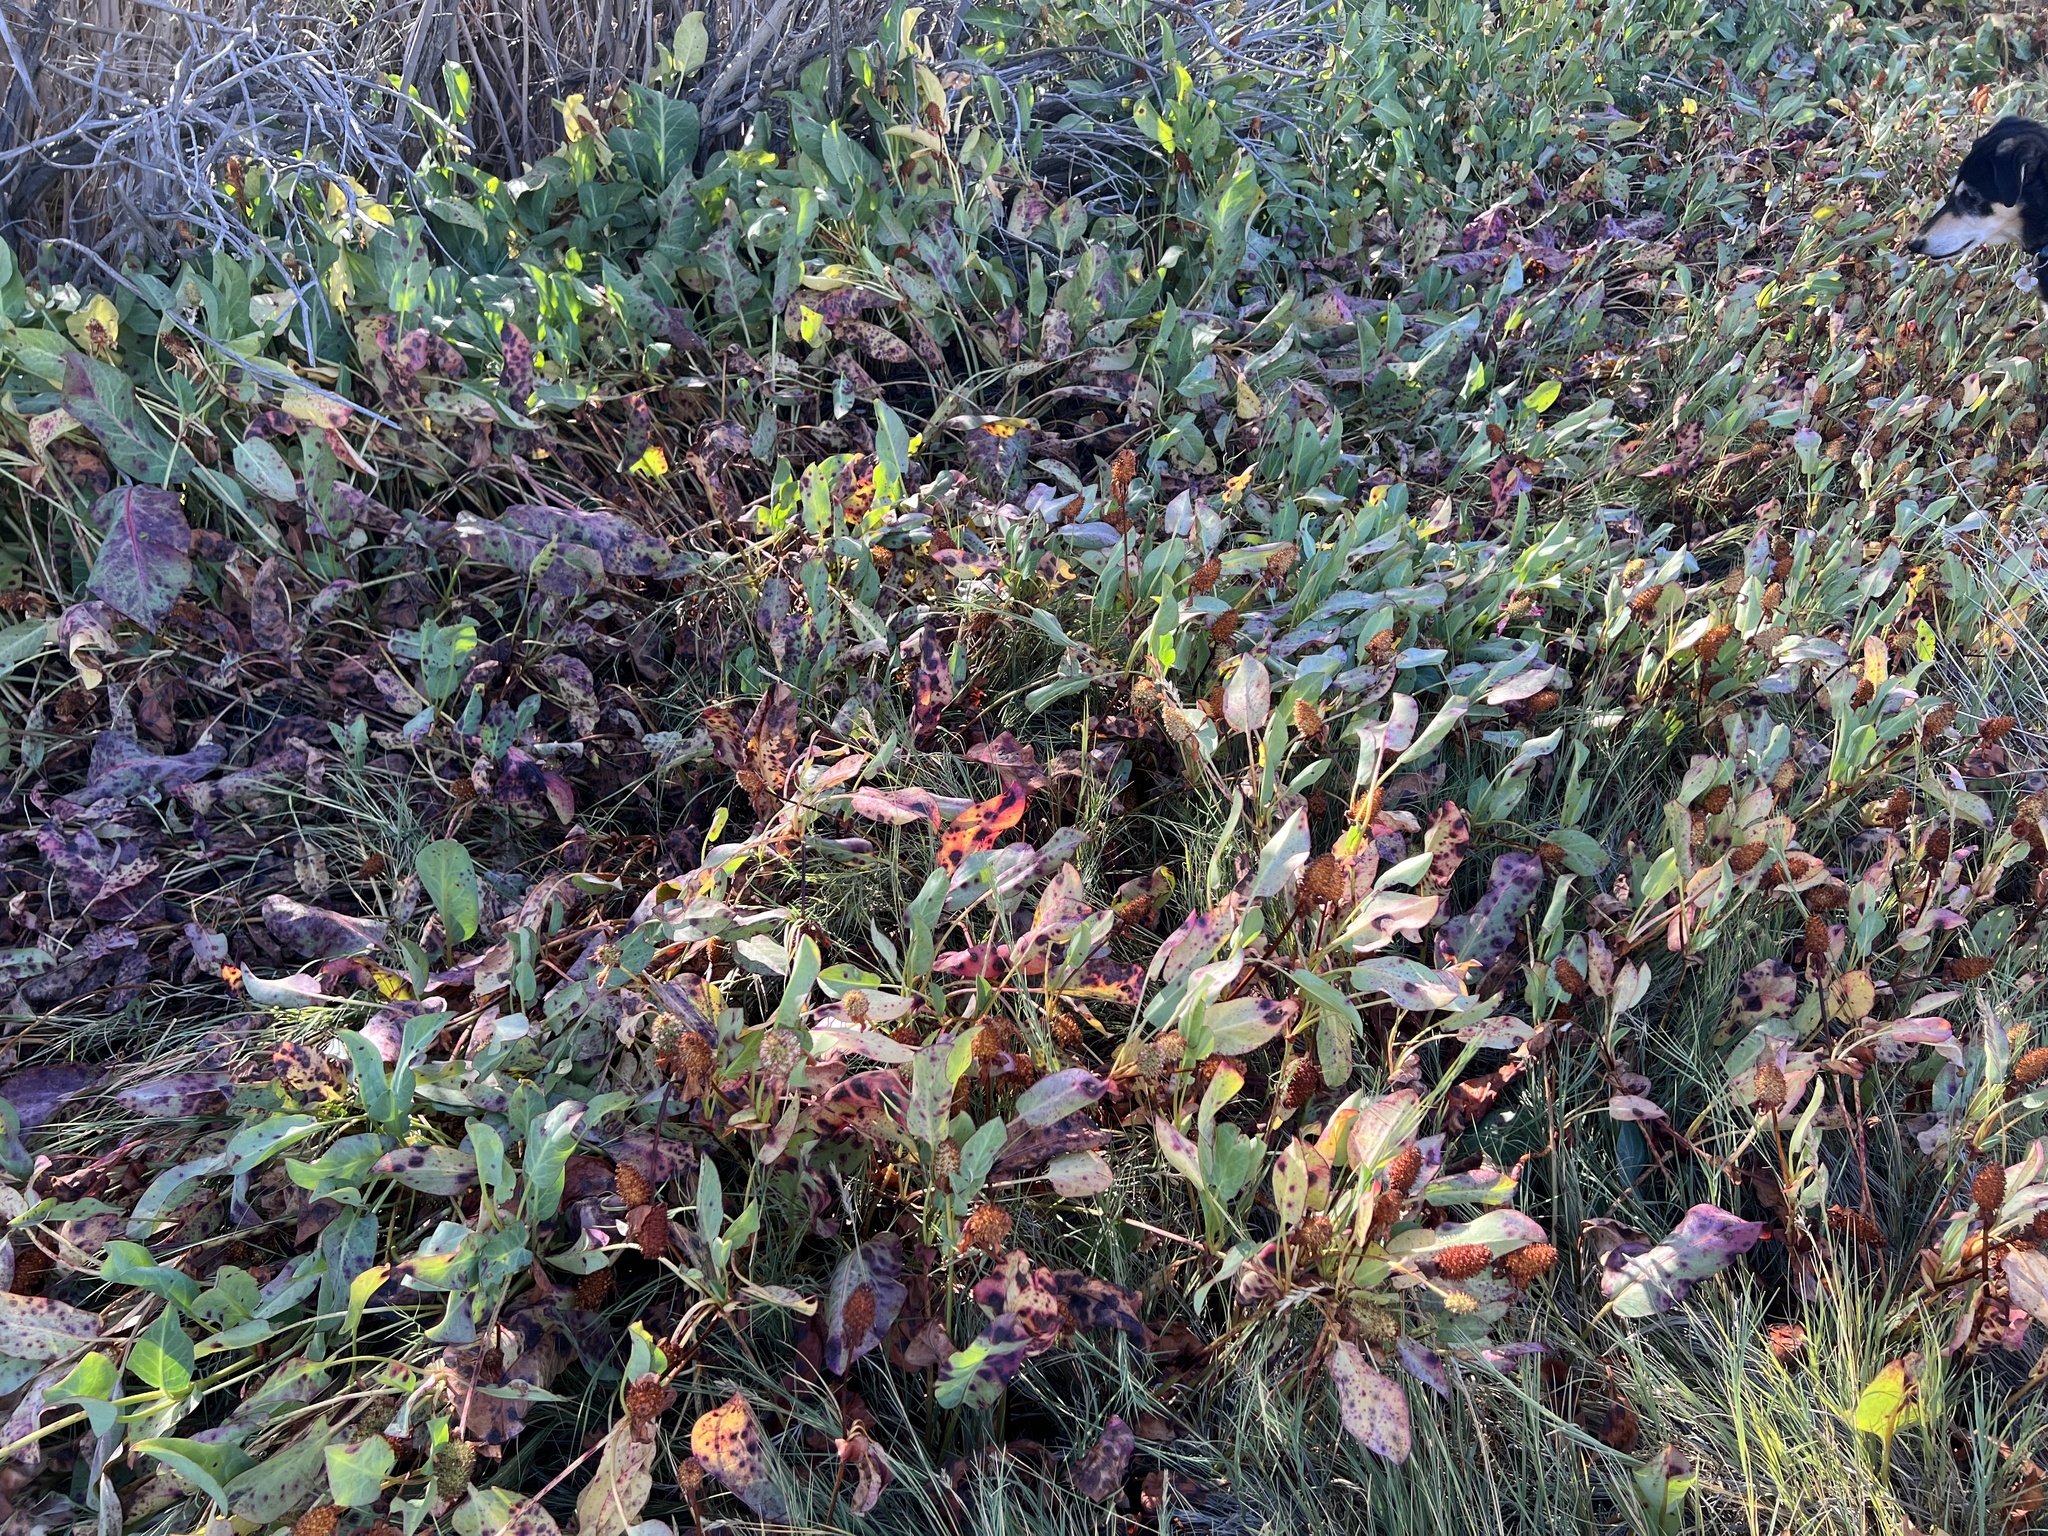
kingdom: Plantae
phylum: Tracheophyta
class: Magnoliopsida
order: Piperales
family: Saururaceae
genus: Anemopsis
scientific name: Anemopsis californica
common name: Apache-beads
